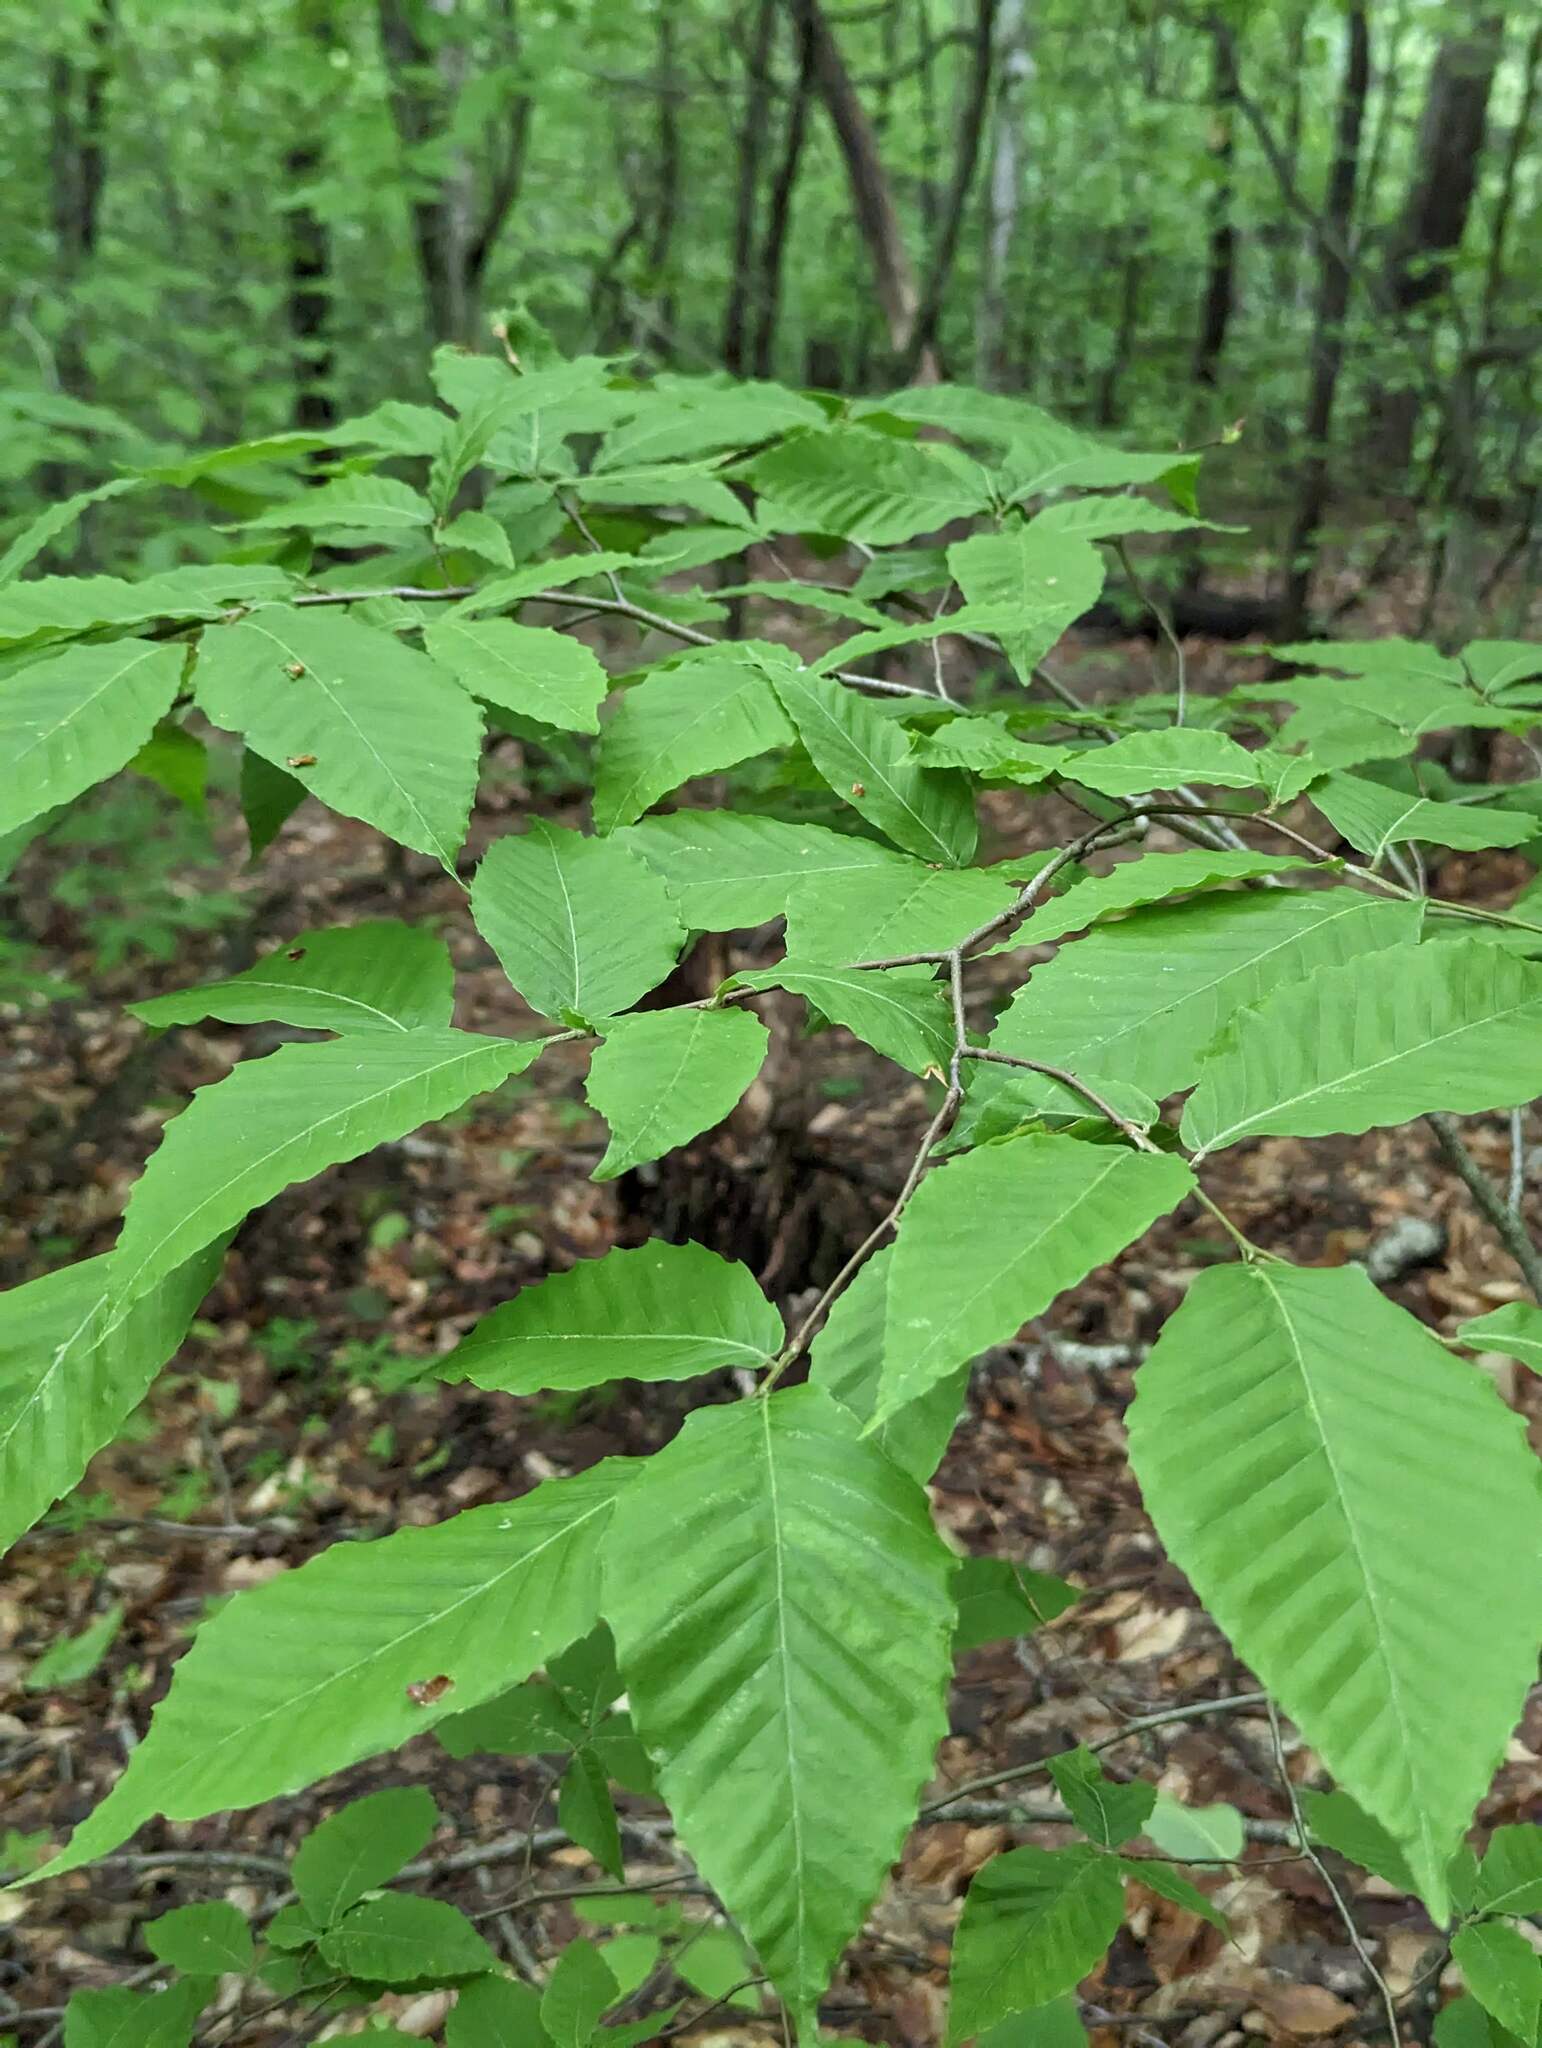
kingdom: Plantae
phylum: Tracheophyta
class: Magnoliopsida
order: Fagales
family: Fagaceae
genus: Fagus
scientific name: Fagus grandifolia
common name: American beech
